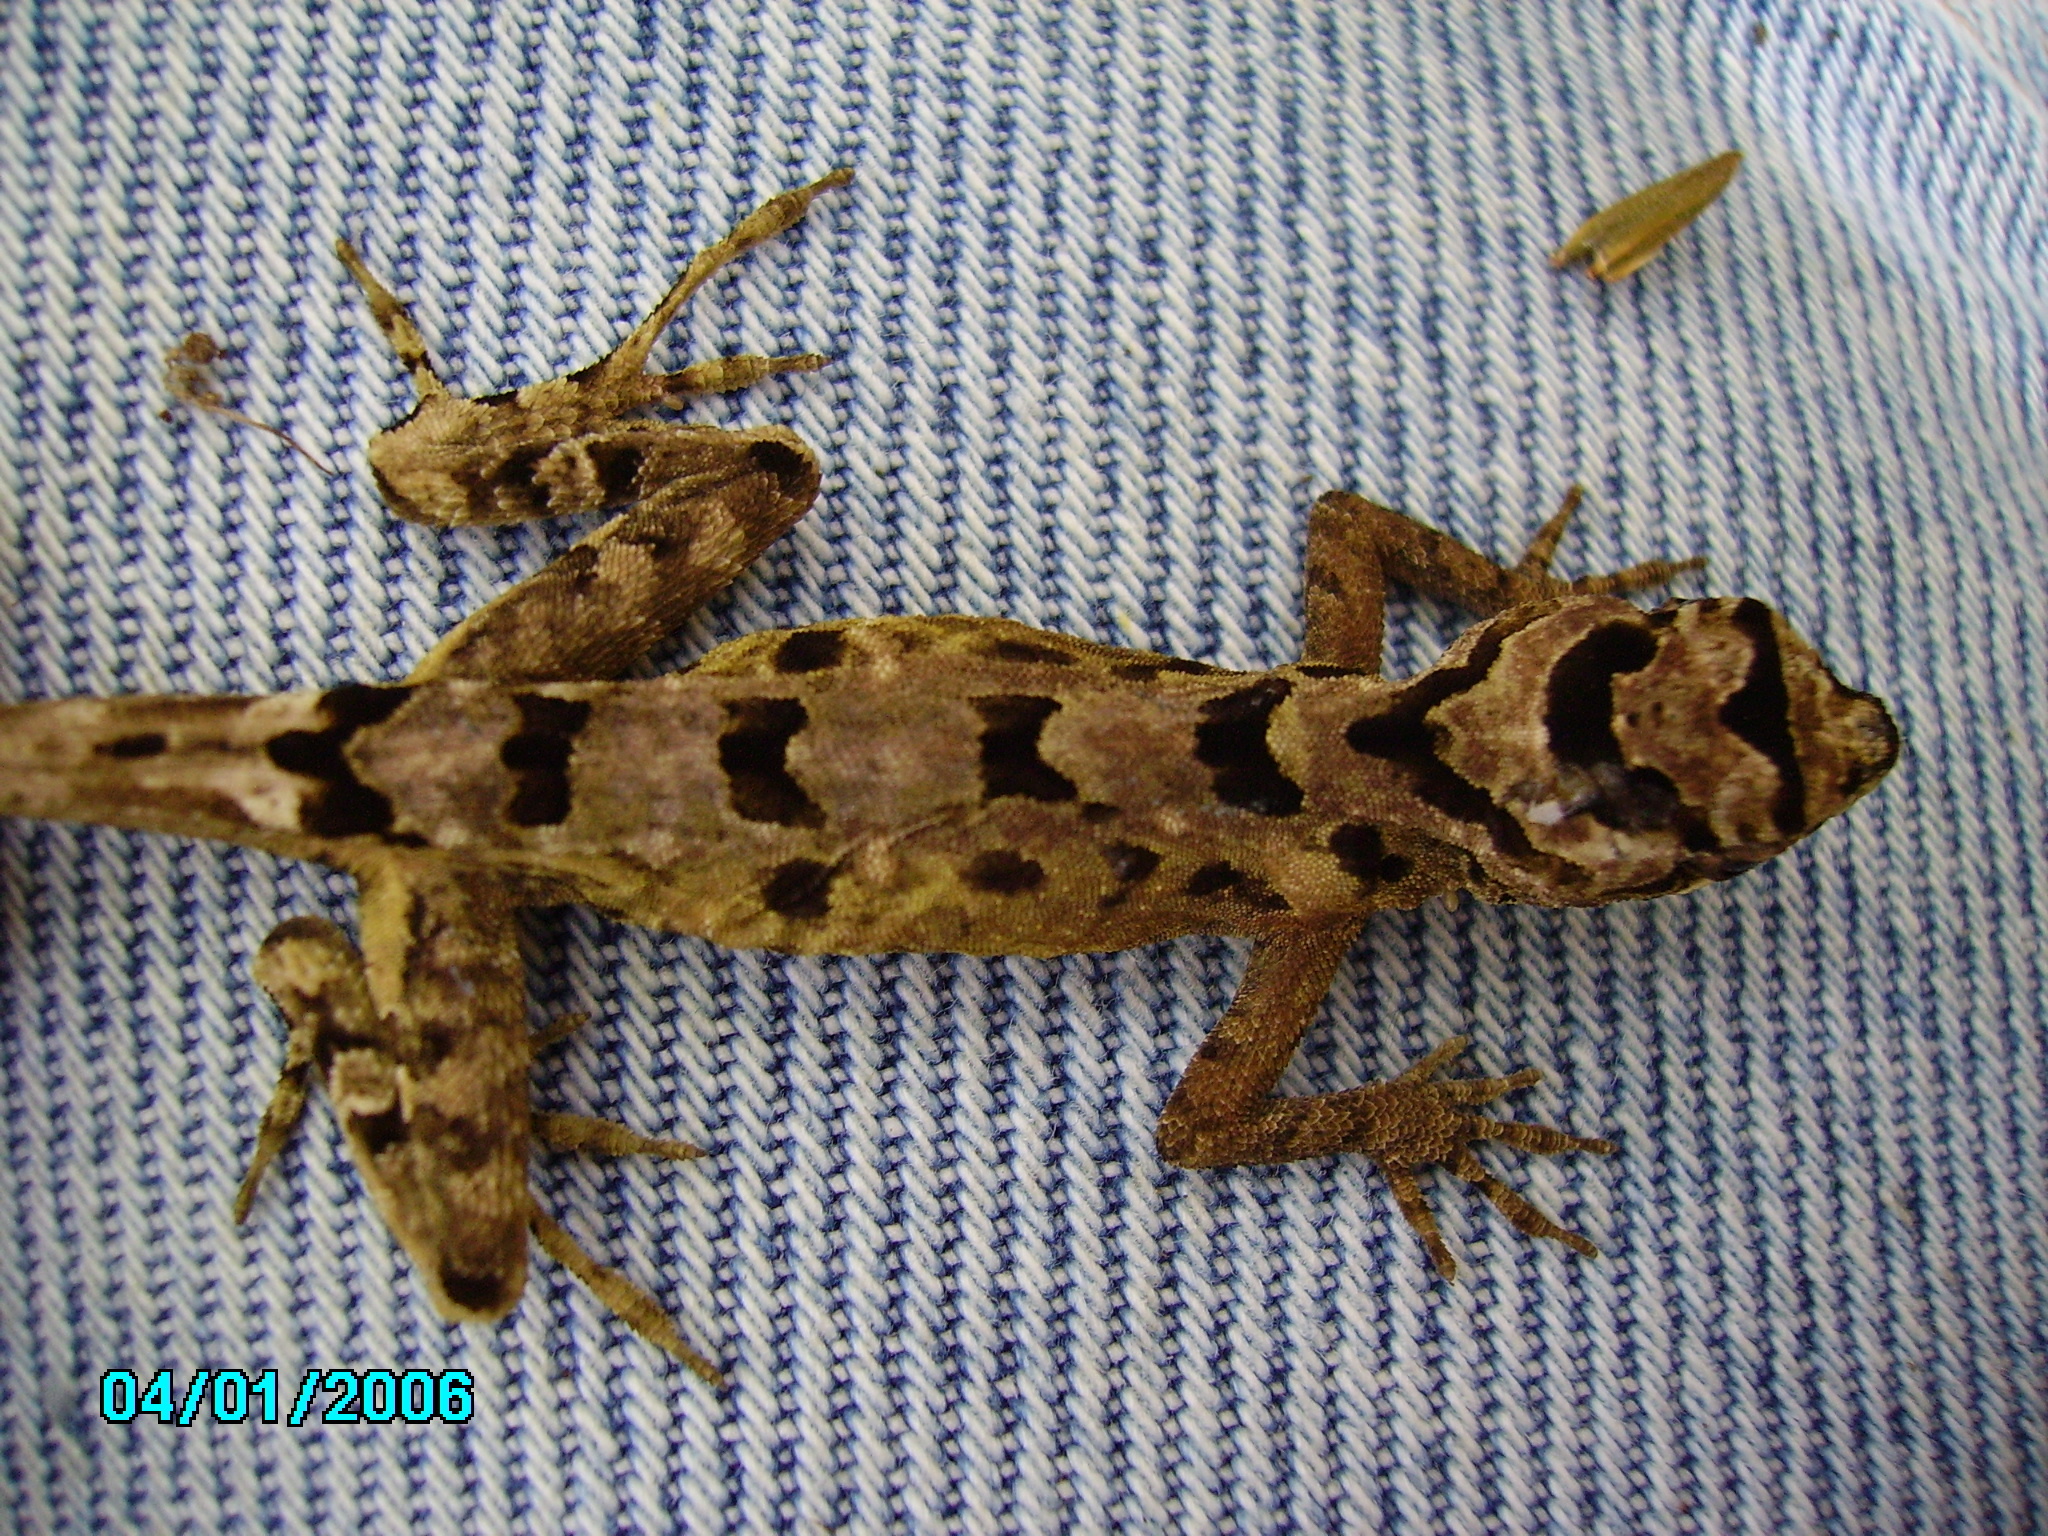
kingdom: Animalia
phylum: Chordata
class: Squamata
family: Dactyloidae
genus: Anolis
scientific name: Anolis serranoi
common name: Serrano’s anole
